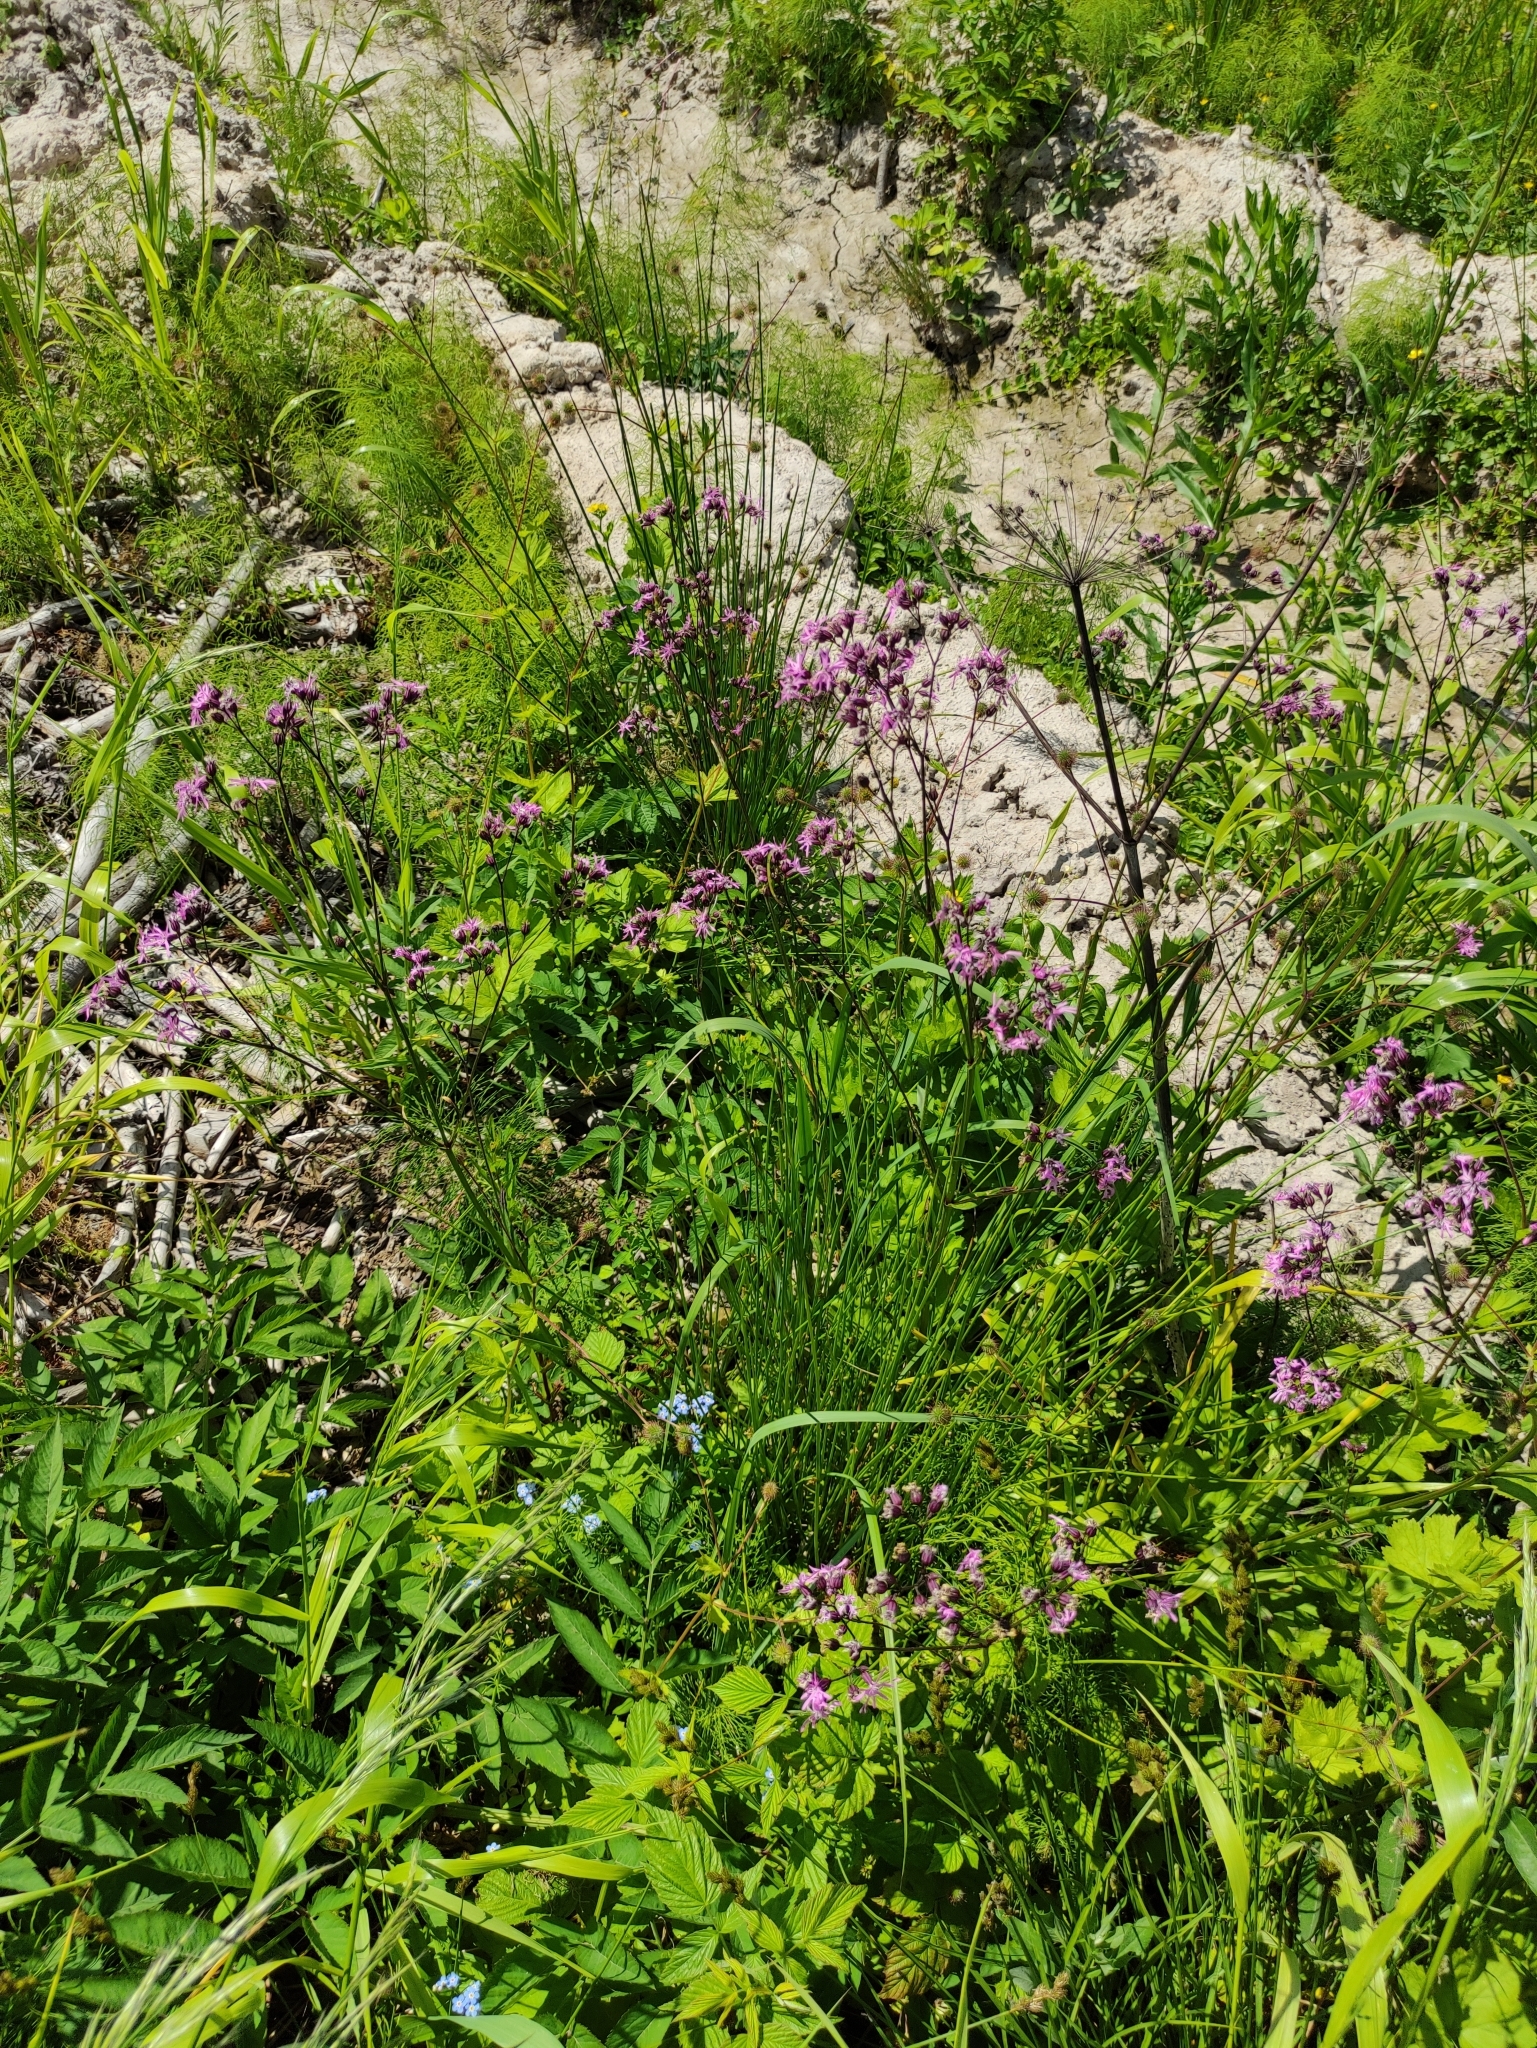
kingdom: Plantae
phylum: Tracheophyta
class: Magnoliopsida
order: Caryophyllales
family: Caryophyllaceae
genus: Silene
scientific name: Silene flos-cuculi
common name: Ragged-robin
